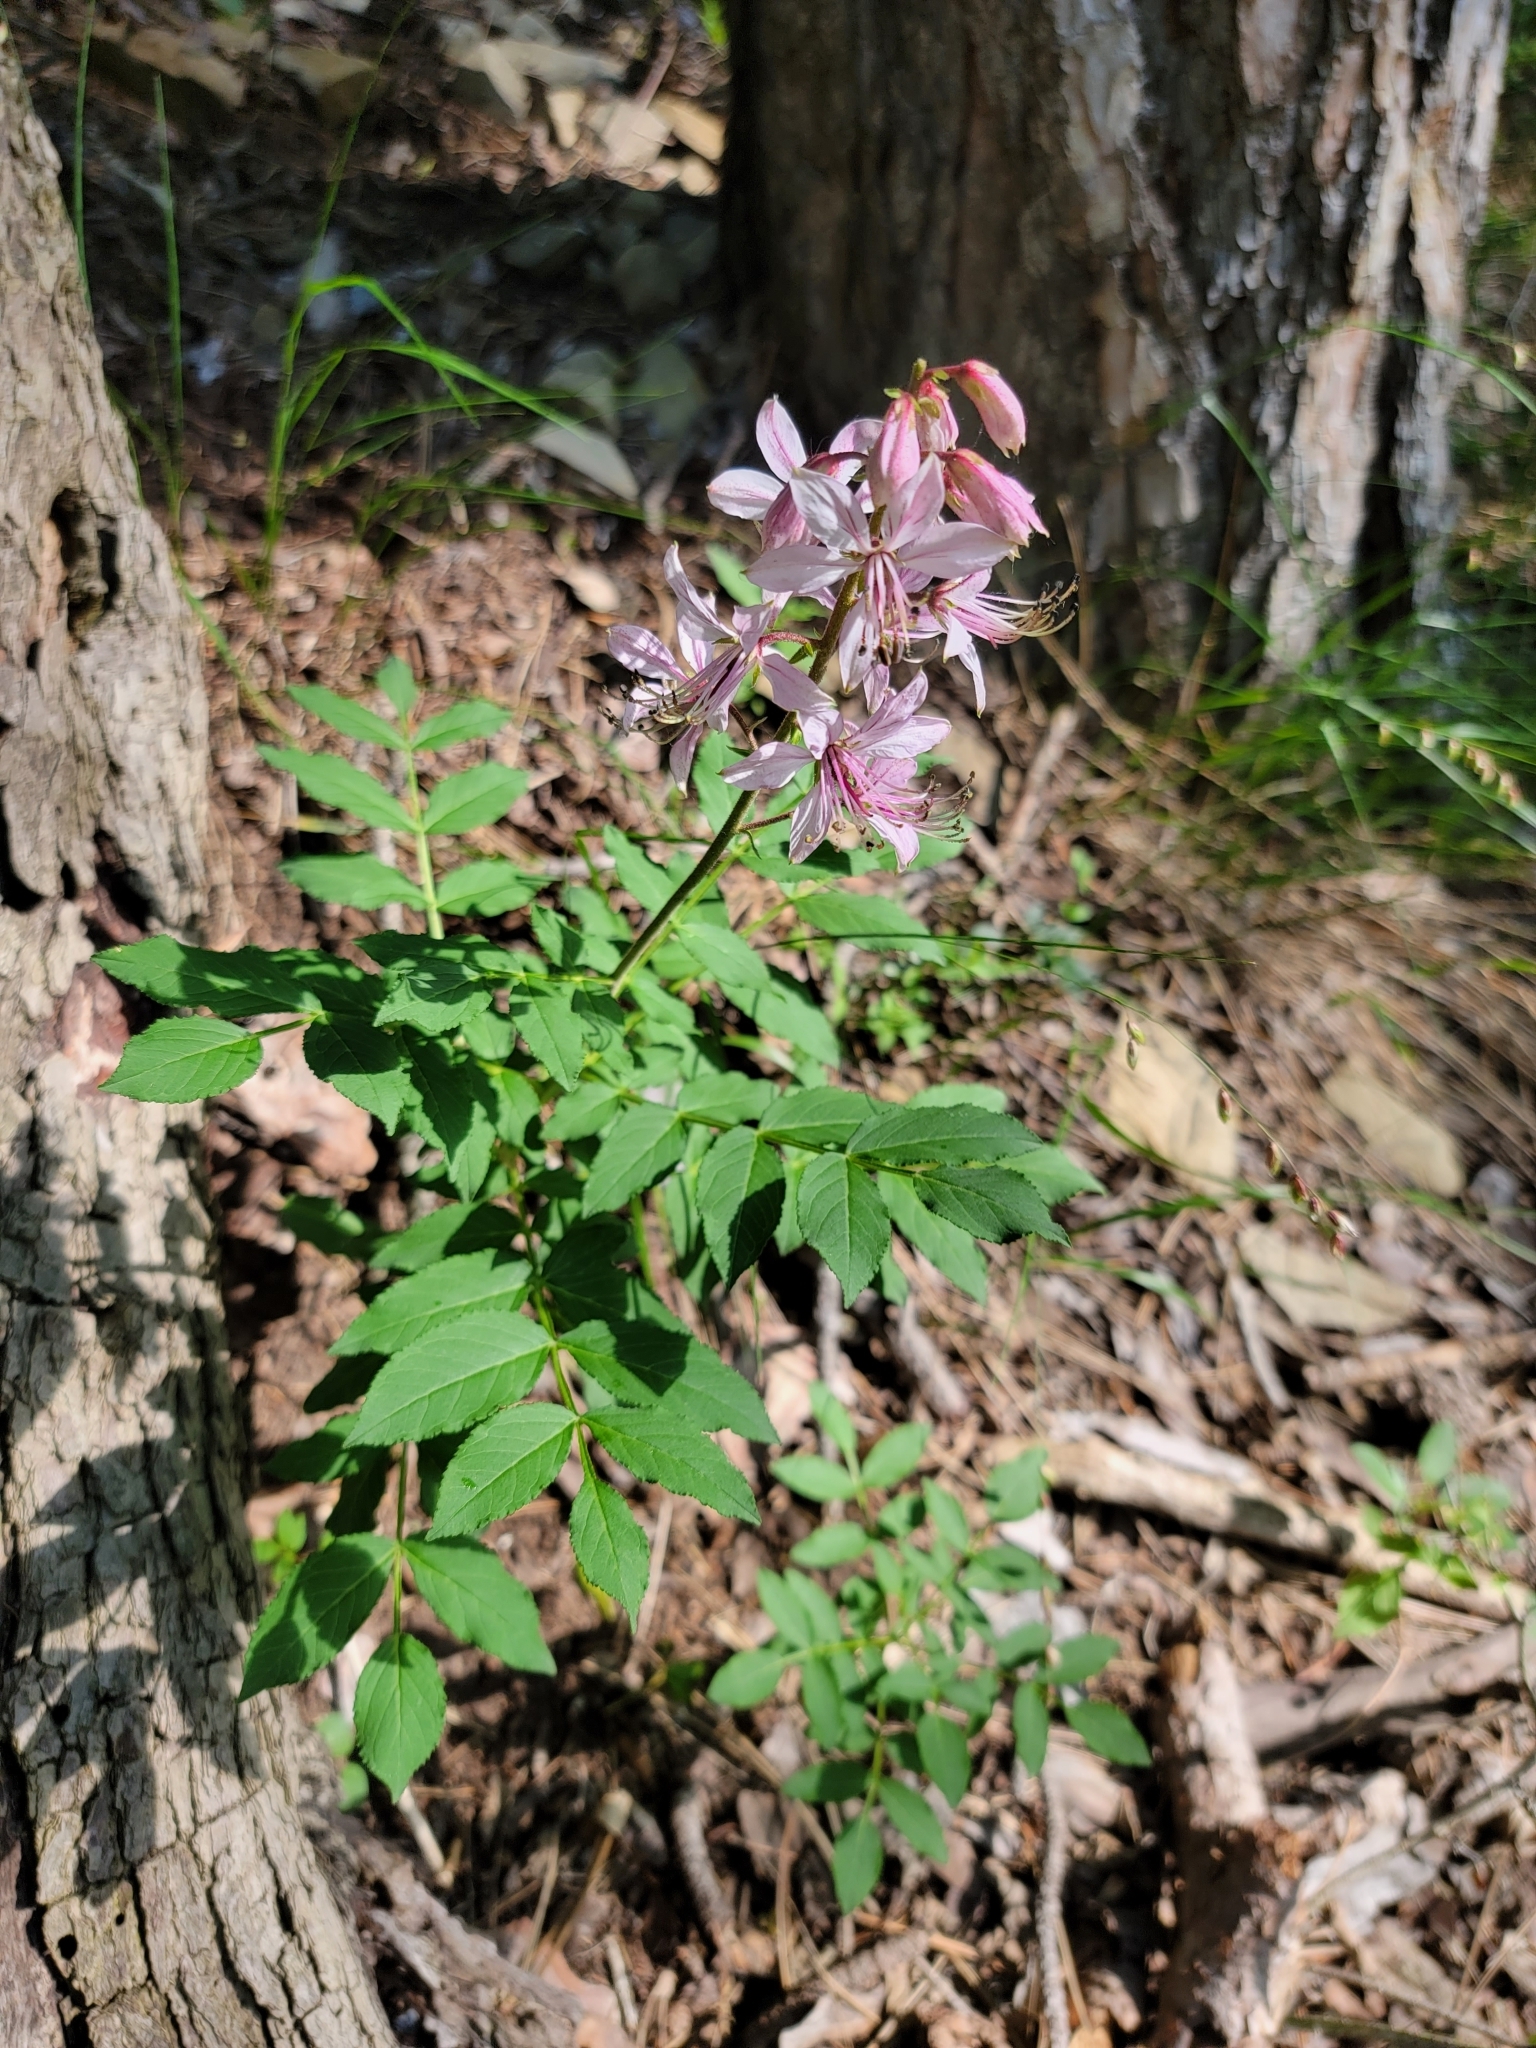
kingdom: Plantae
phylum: Tracheophyta
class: Magnoliopsida
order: Sapindales
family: Rutaceae
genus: Dictamnus
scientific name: Dictamnus albus
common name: Gasplant
